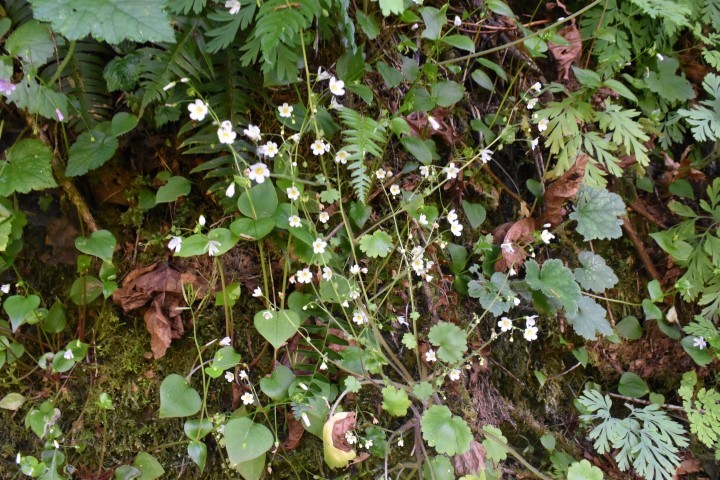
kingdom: Plantae
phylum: Tracheophyta
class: Magnoliopsida
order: Boraginales
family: Hydrophyllaceae
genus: Romanzoffia
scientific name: Romanzoffia sitchensis
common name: Sitka mistmaid
